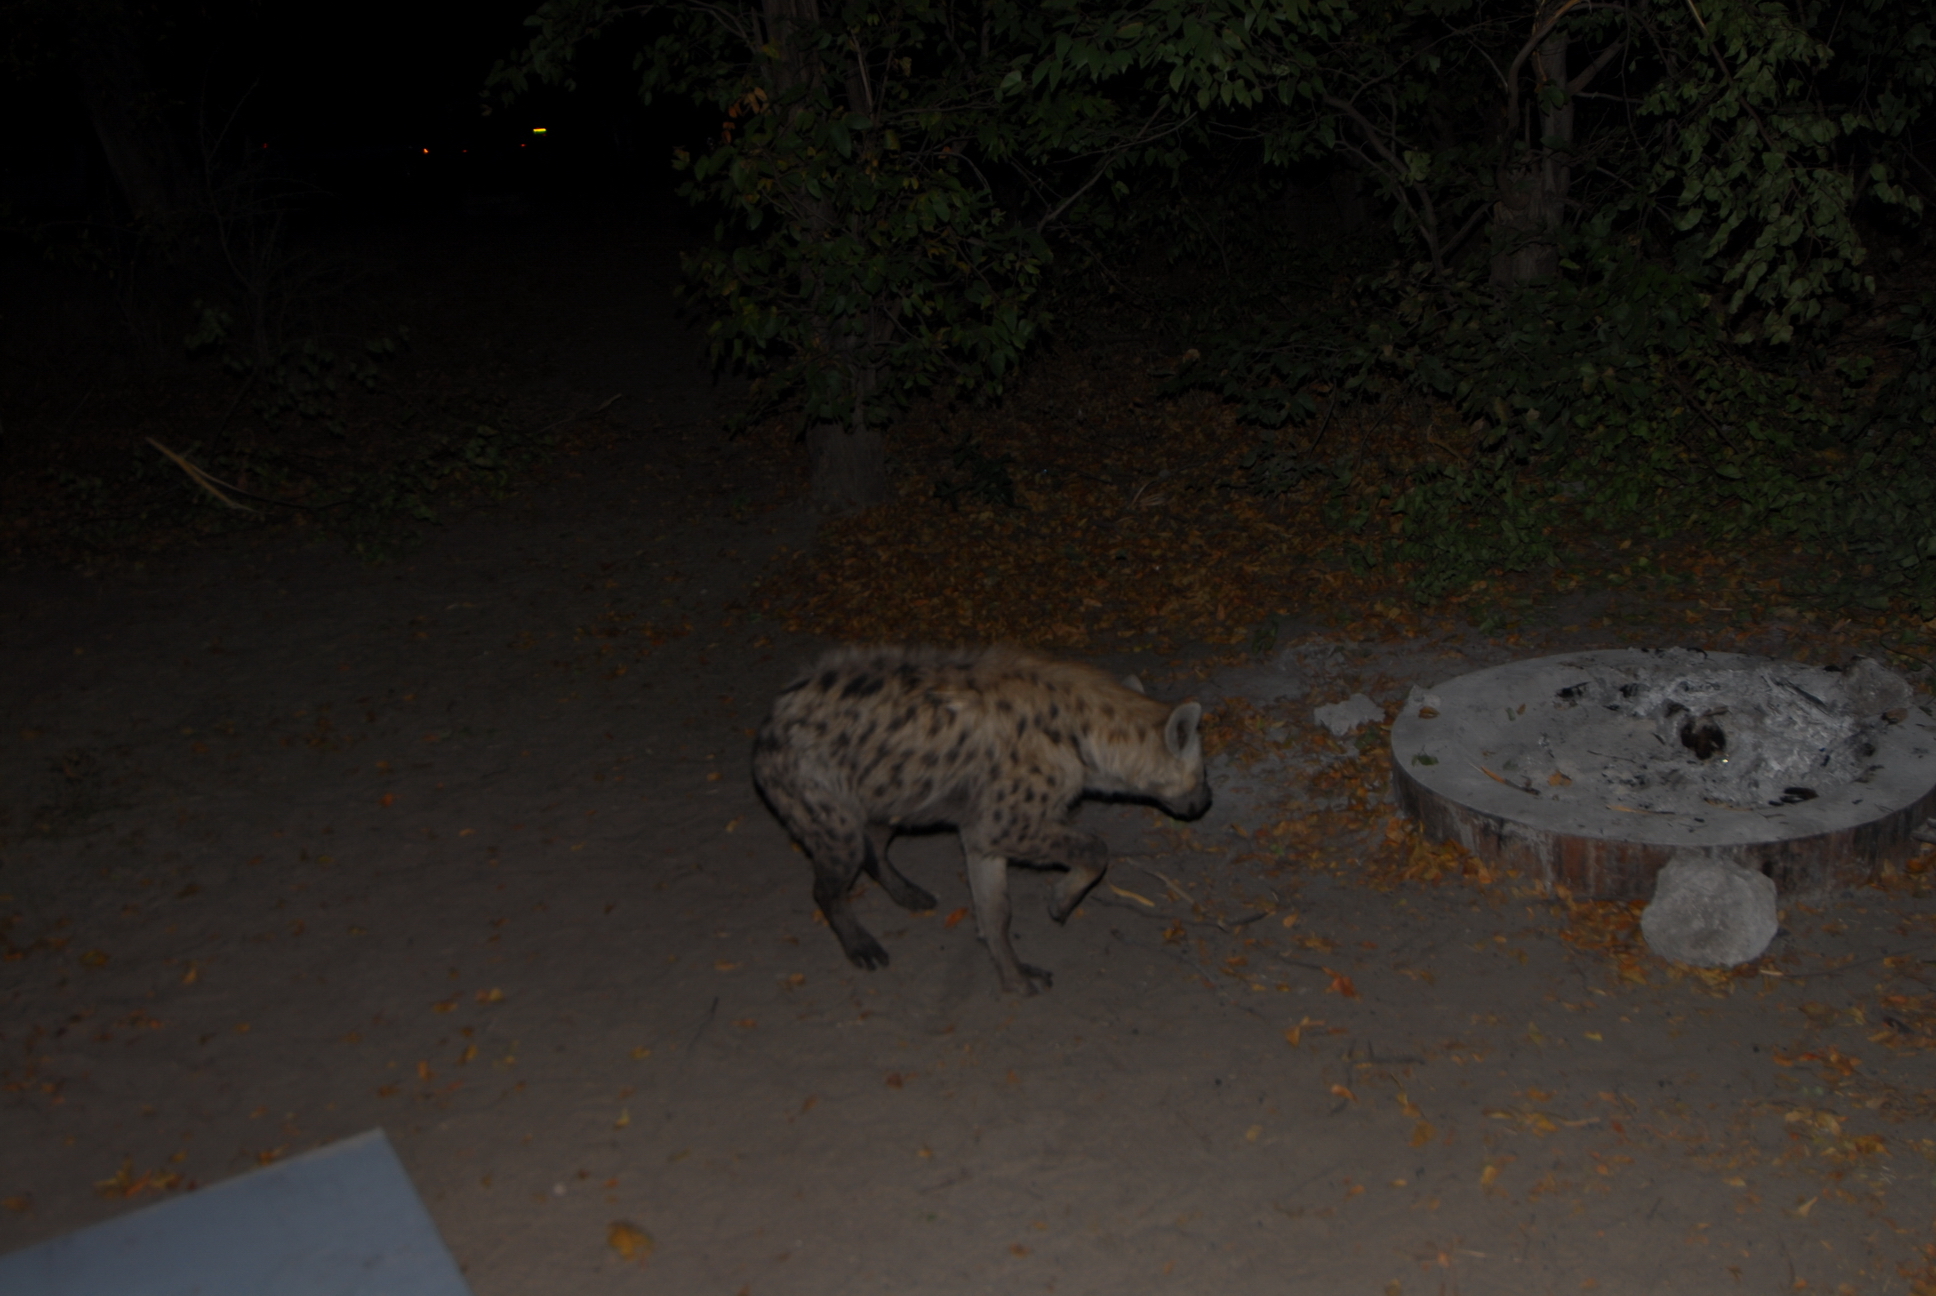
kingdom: Animalia
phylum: Chordata
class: Mammalia
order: Carnivora
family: Hyaenidae
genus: Crocuta
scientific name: Crocuta crocuta
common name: Spotted hyaena
